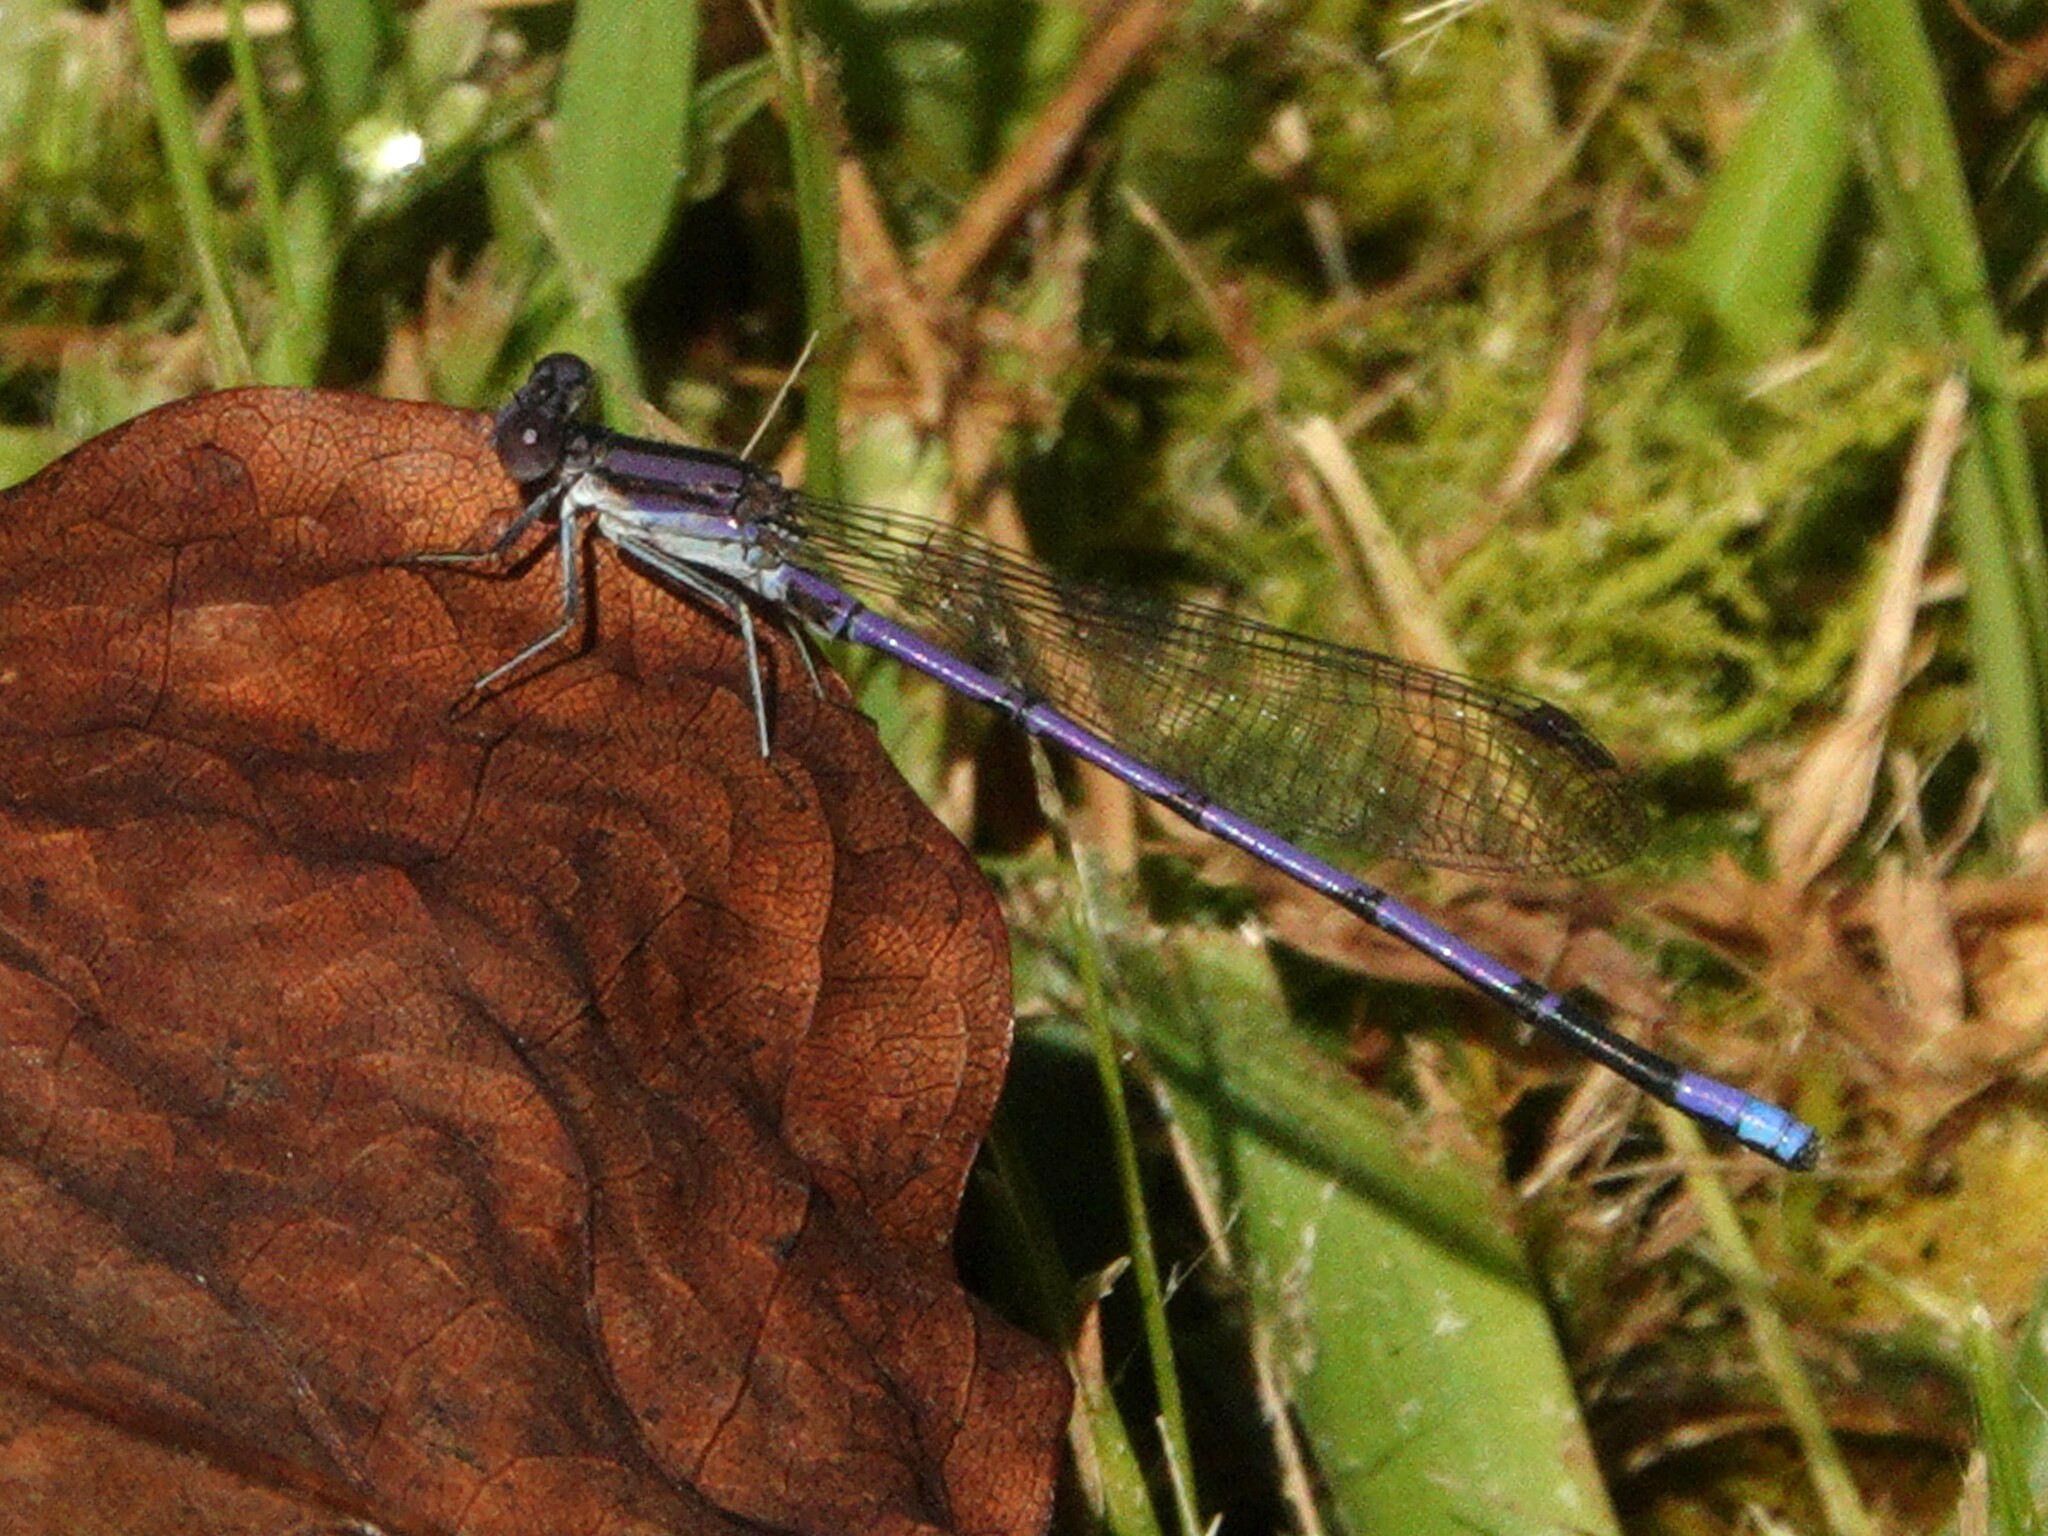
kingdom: Animalia
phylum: Arthropoda
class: Insecta
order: Odonata
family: Coenagrionidae
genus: Argia
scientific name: Argia fumipennis
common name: Variable dancer
